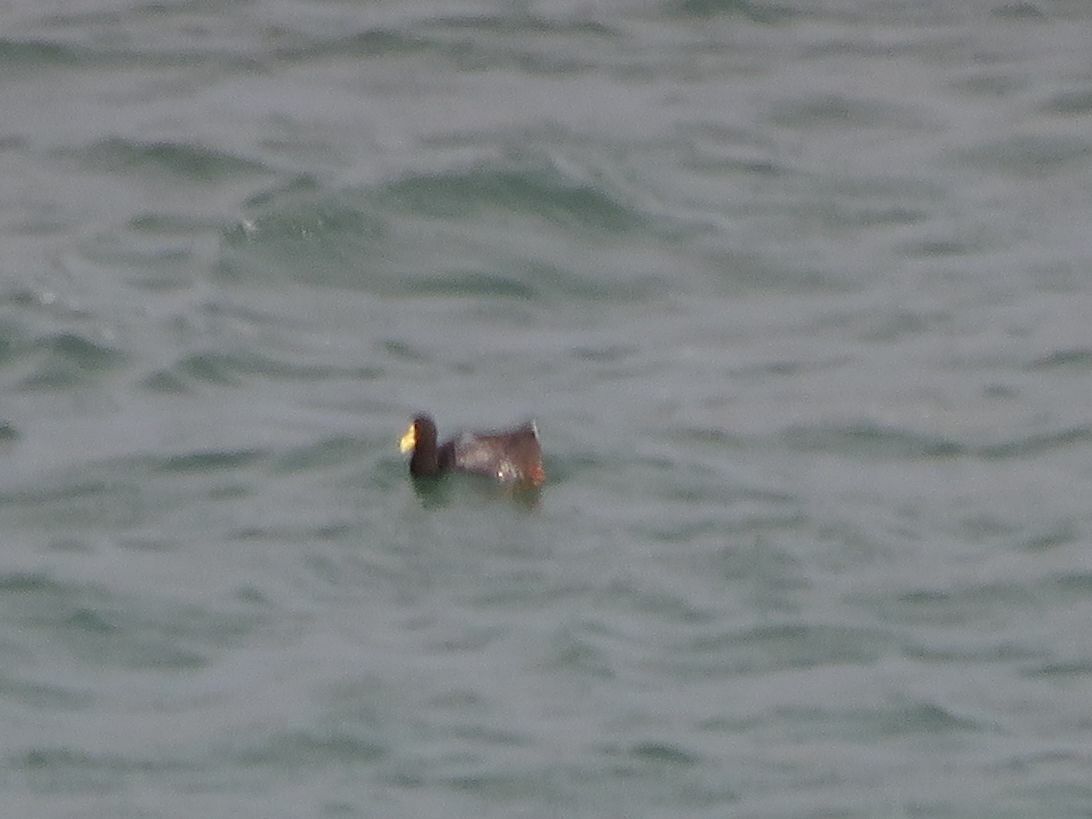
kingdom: Animalia
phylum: Chordata
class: Aves
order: Gruiformes
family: Rallidae
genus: Fulica
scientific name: Fulica armillata
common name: Red-gartered coot
